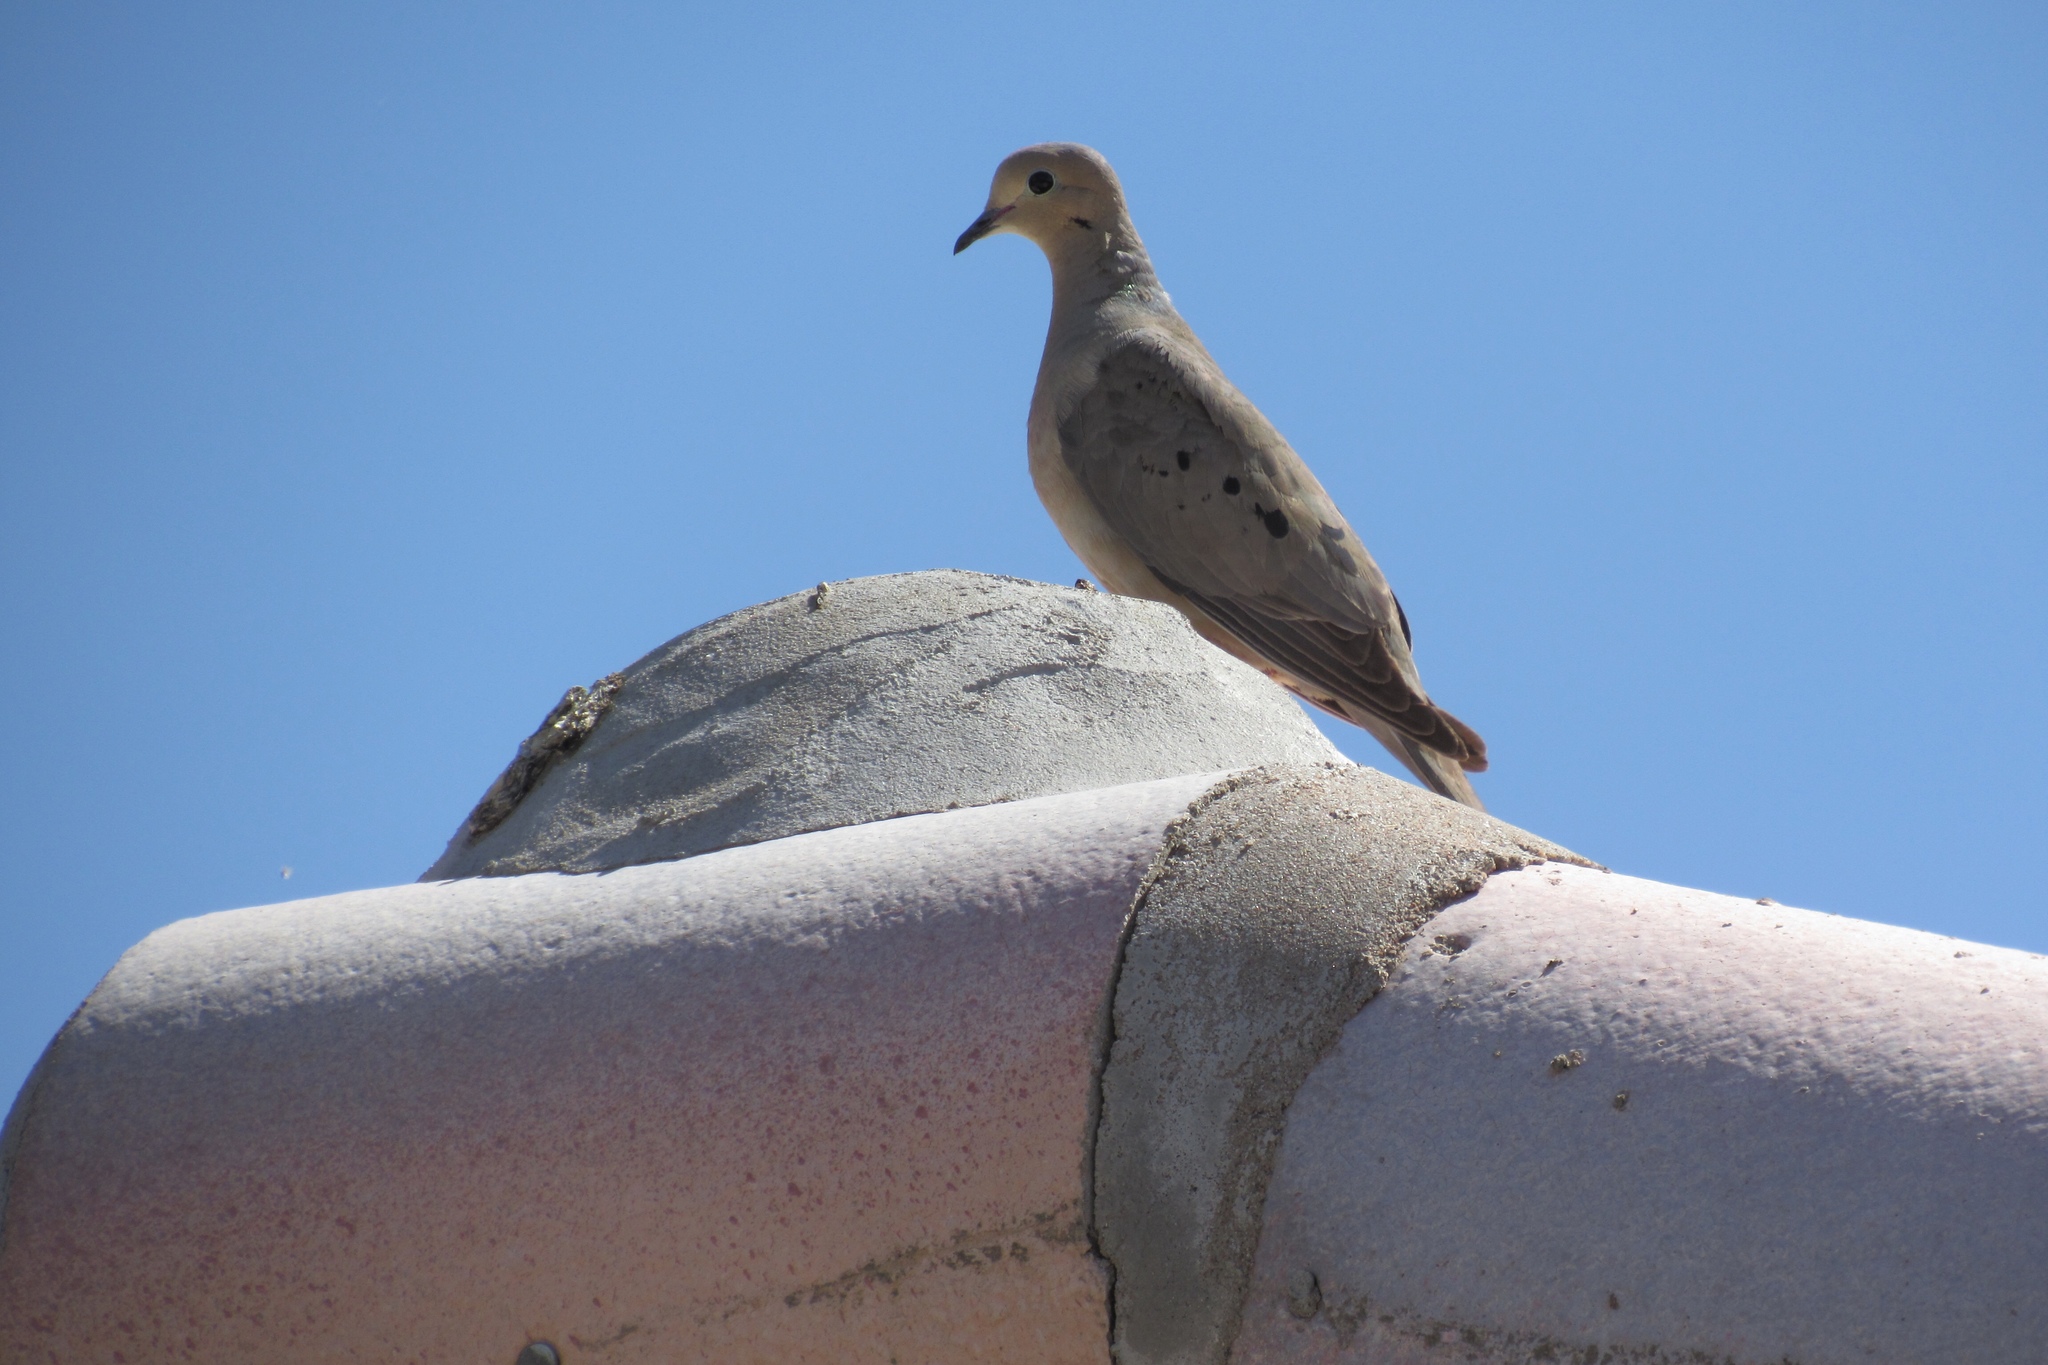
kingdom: Animalia
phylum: Chordata
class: Aves
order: Columbiformes
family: Columbidae
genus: Zenaida
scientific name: Zenaida macroura
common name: Mourning dove
